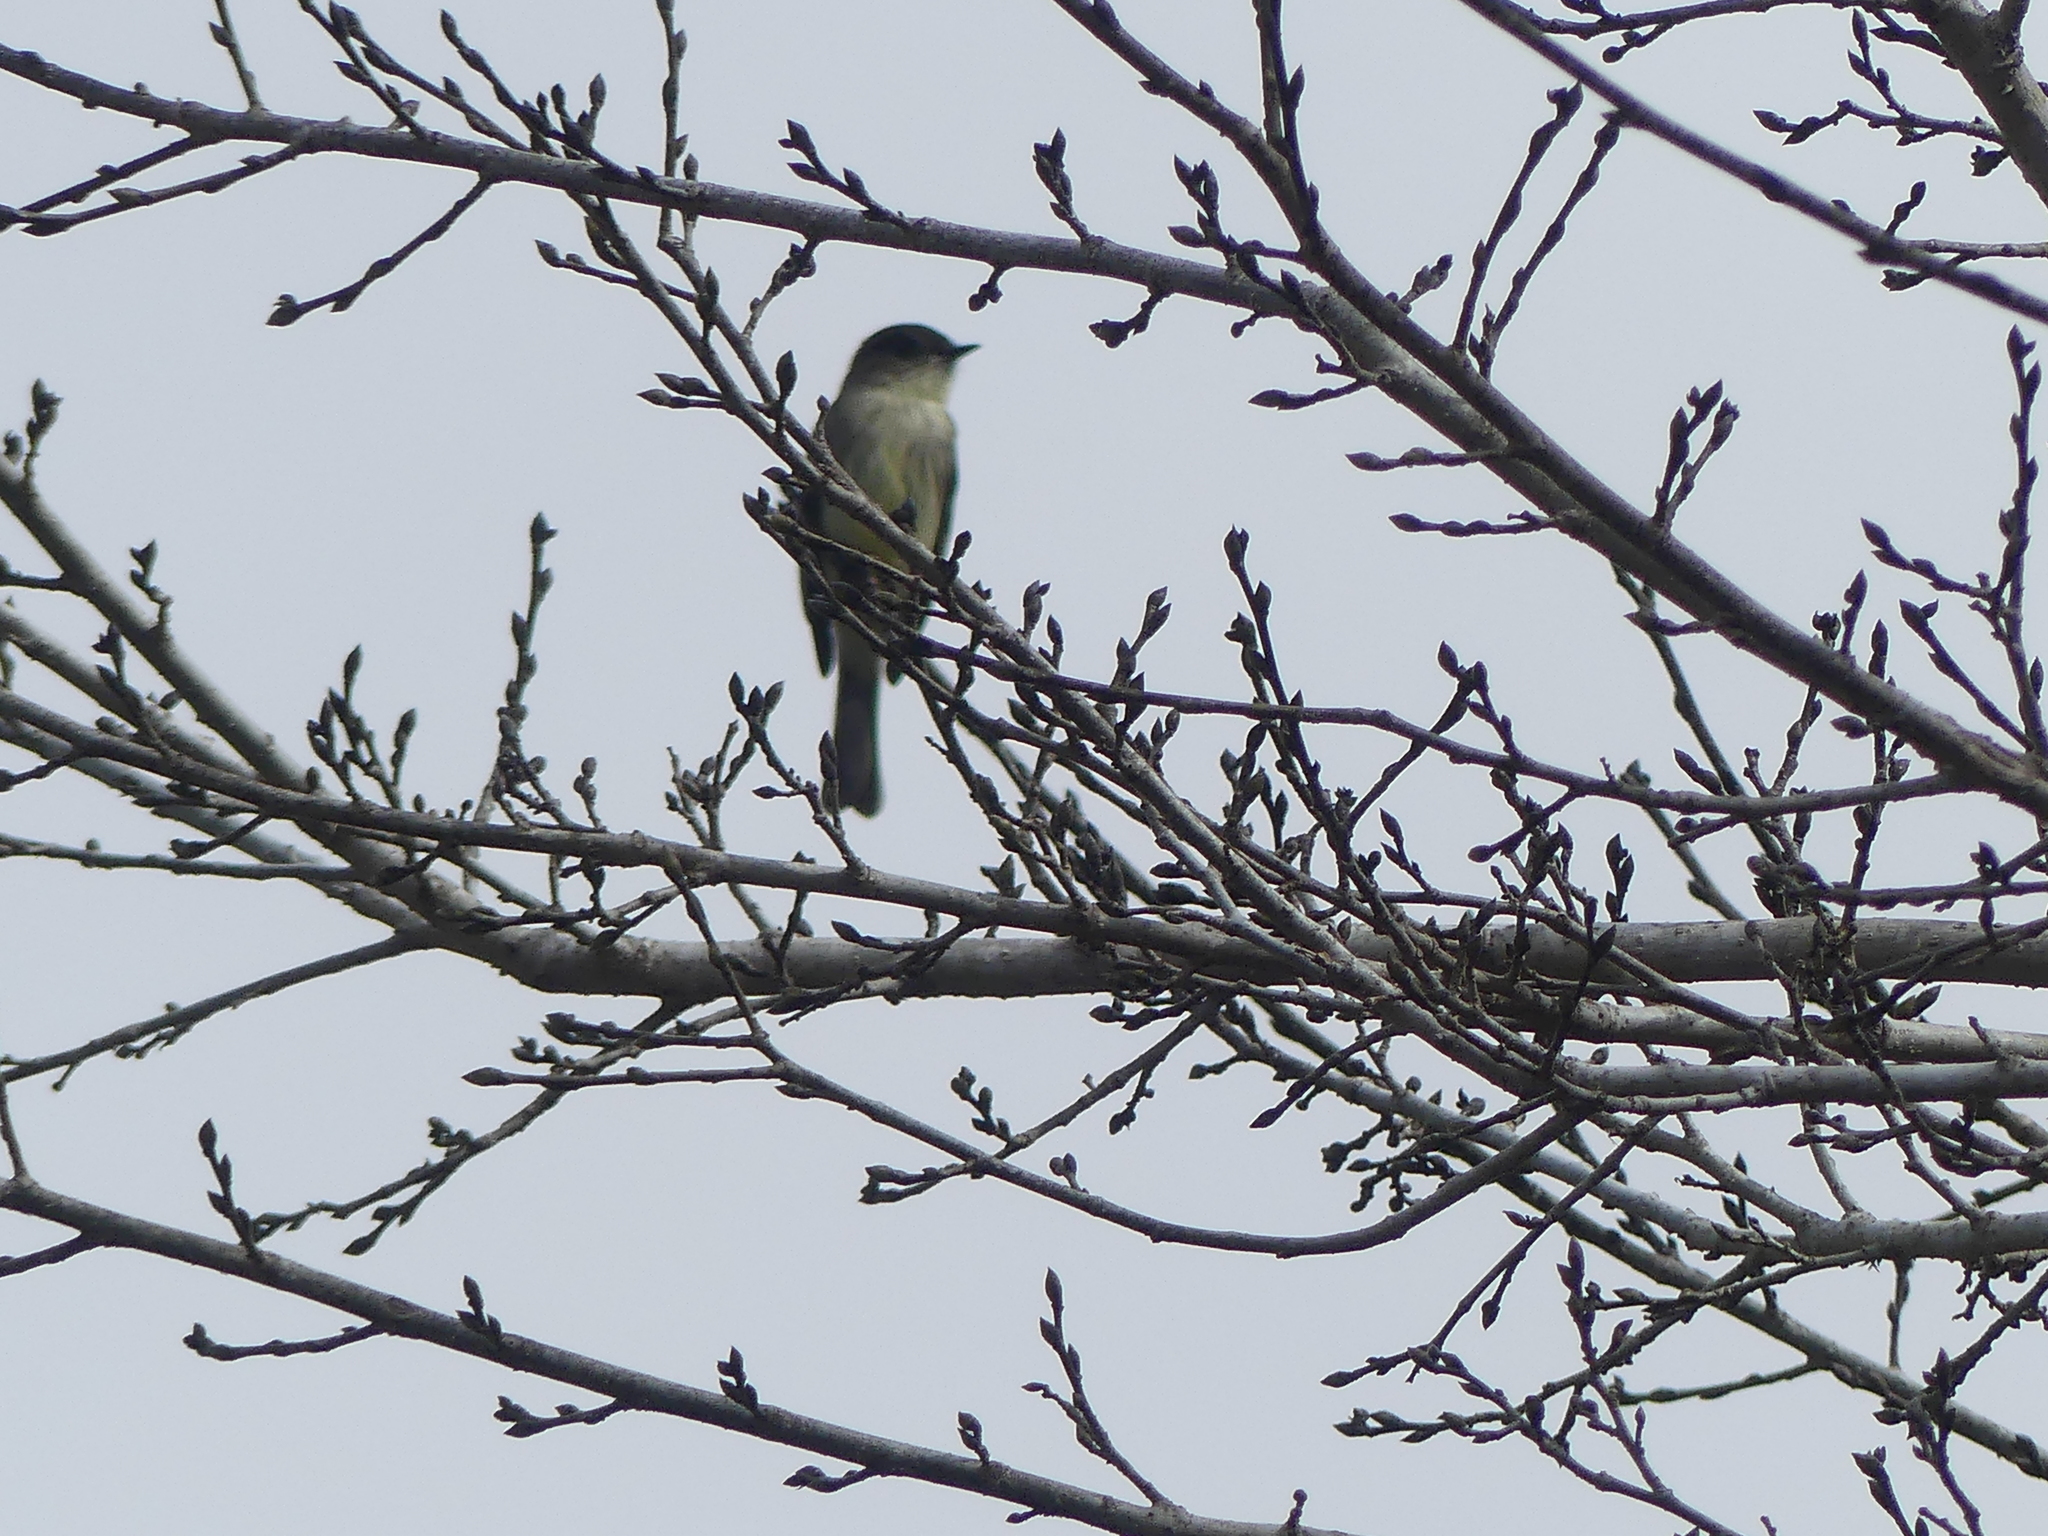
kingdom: Animalia
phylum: Chordata
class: Aves
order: Passeriformes
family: Tyrannidae
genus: Sayornis
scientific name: Sayornis phoebe
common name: Eastern phoebe
